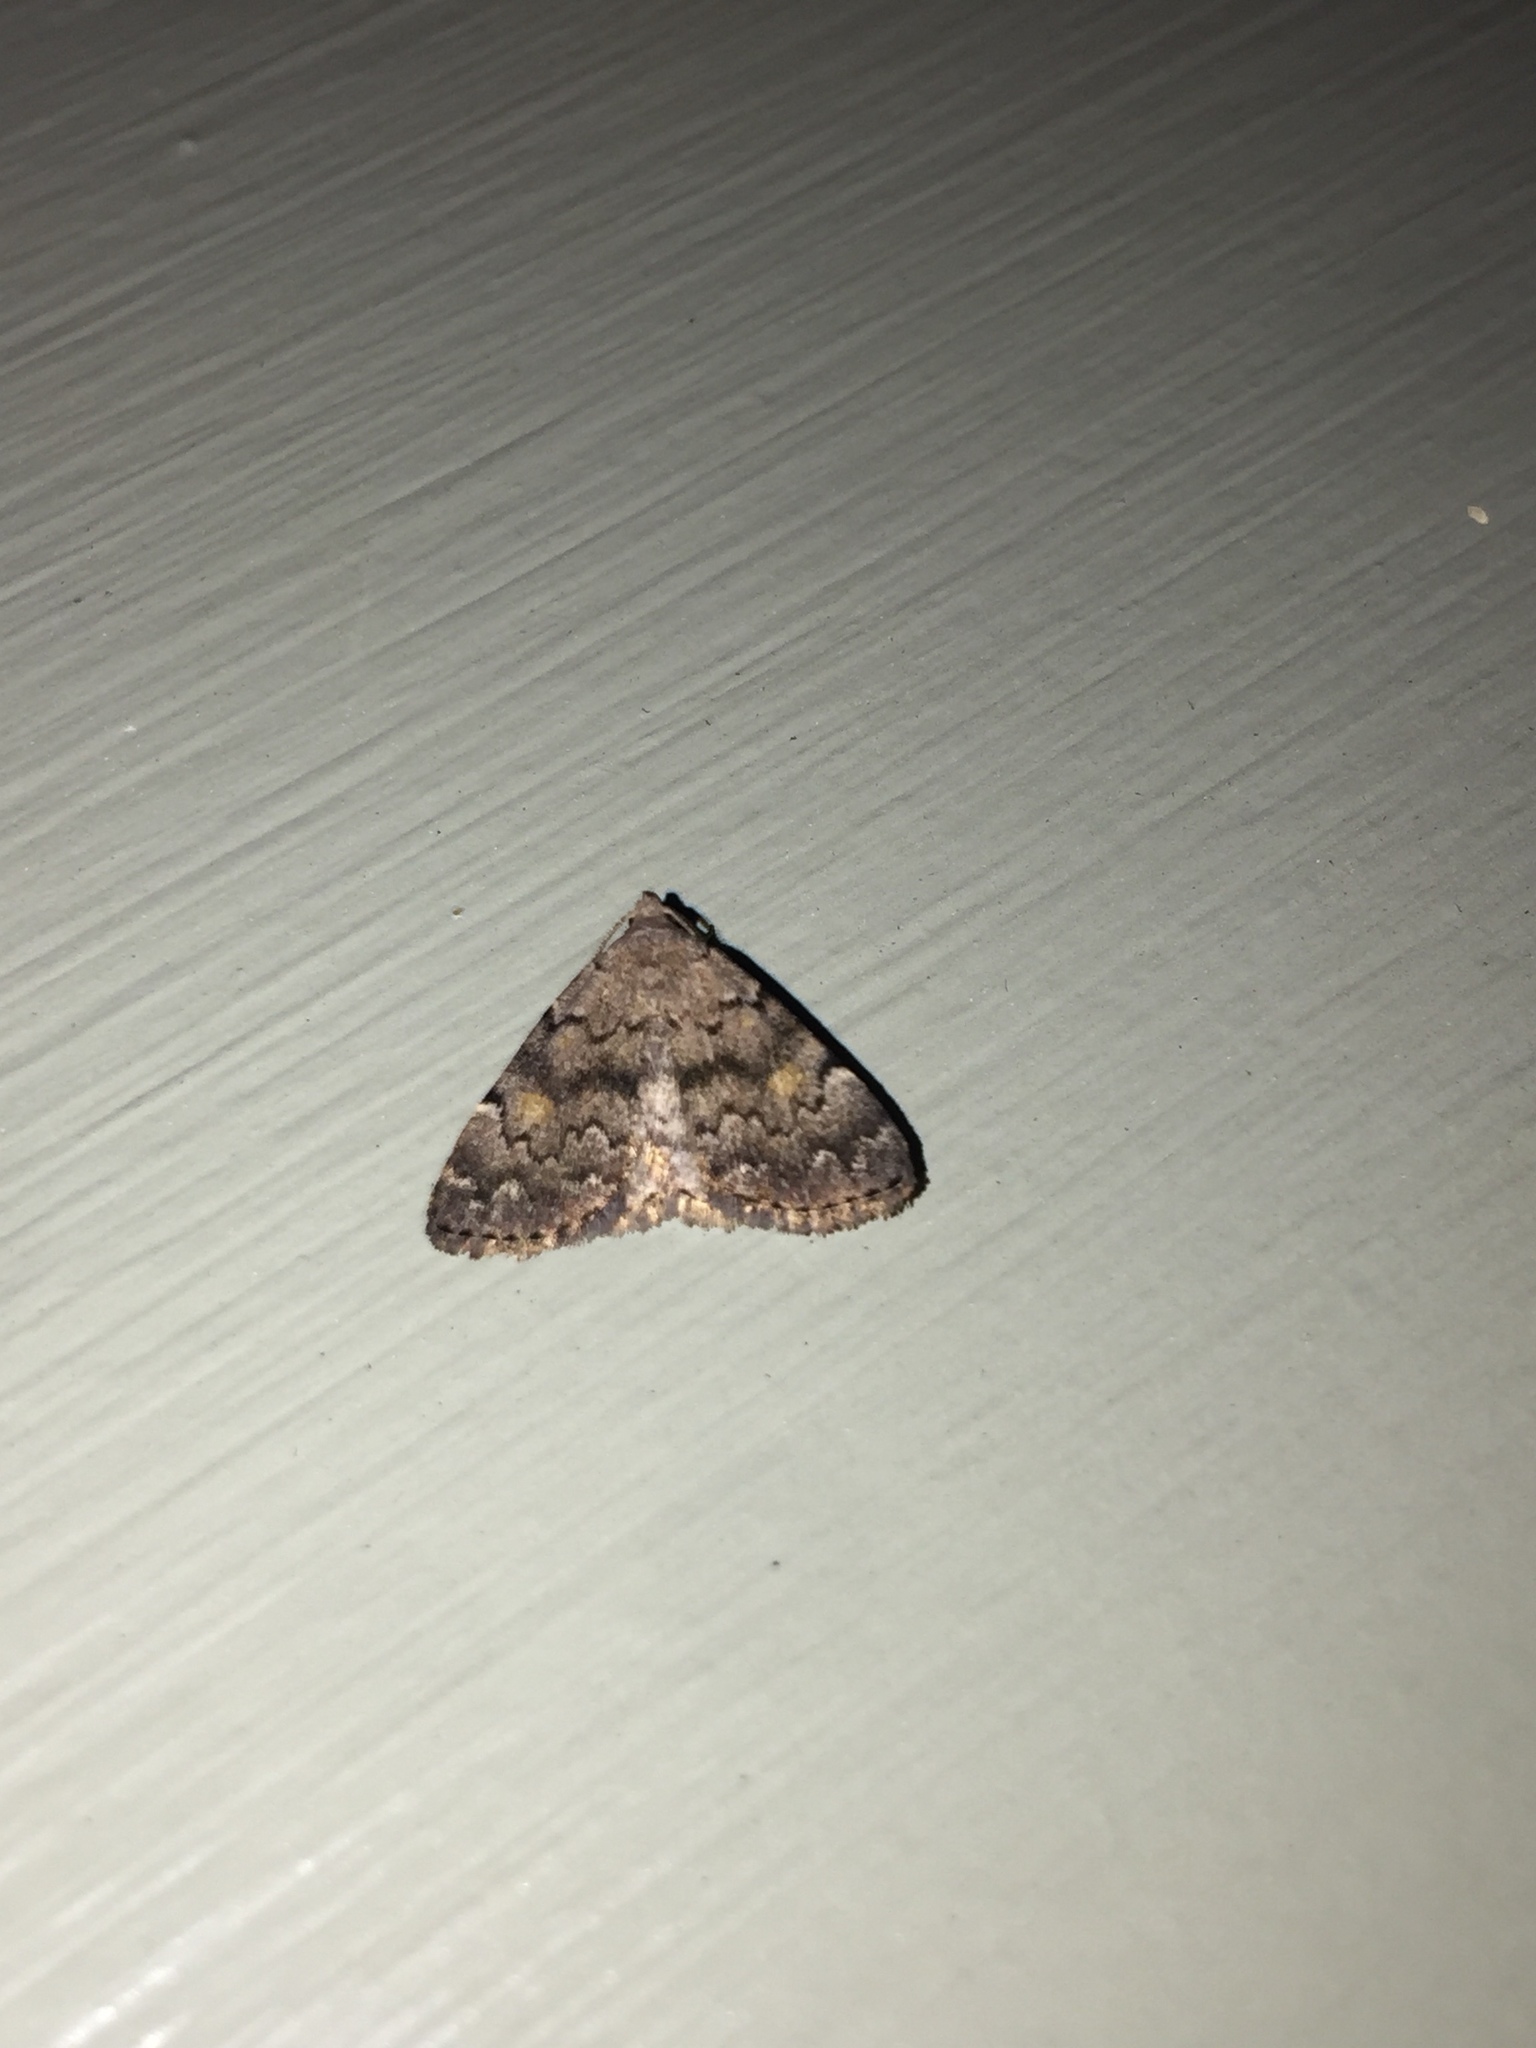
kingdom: Animalia
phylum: Arthropoda
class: Insecta
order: Lepidoptera
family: Erebidae
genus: Idia
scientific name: Idia aemula
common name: Common idia moth
